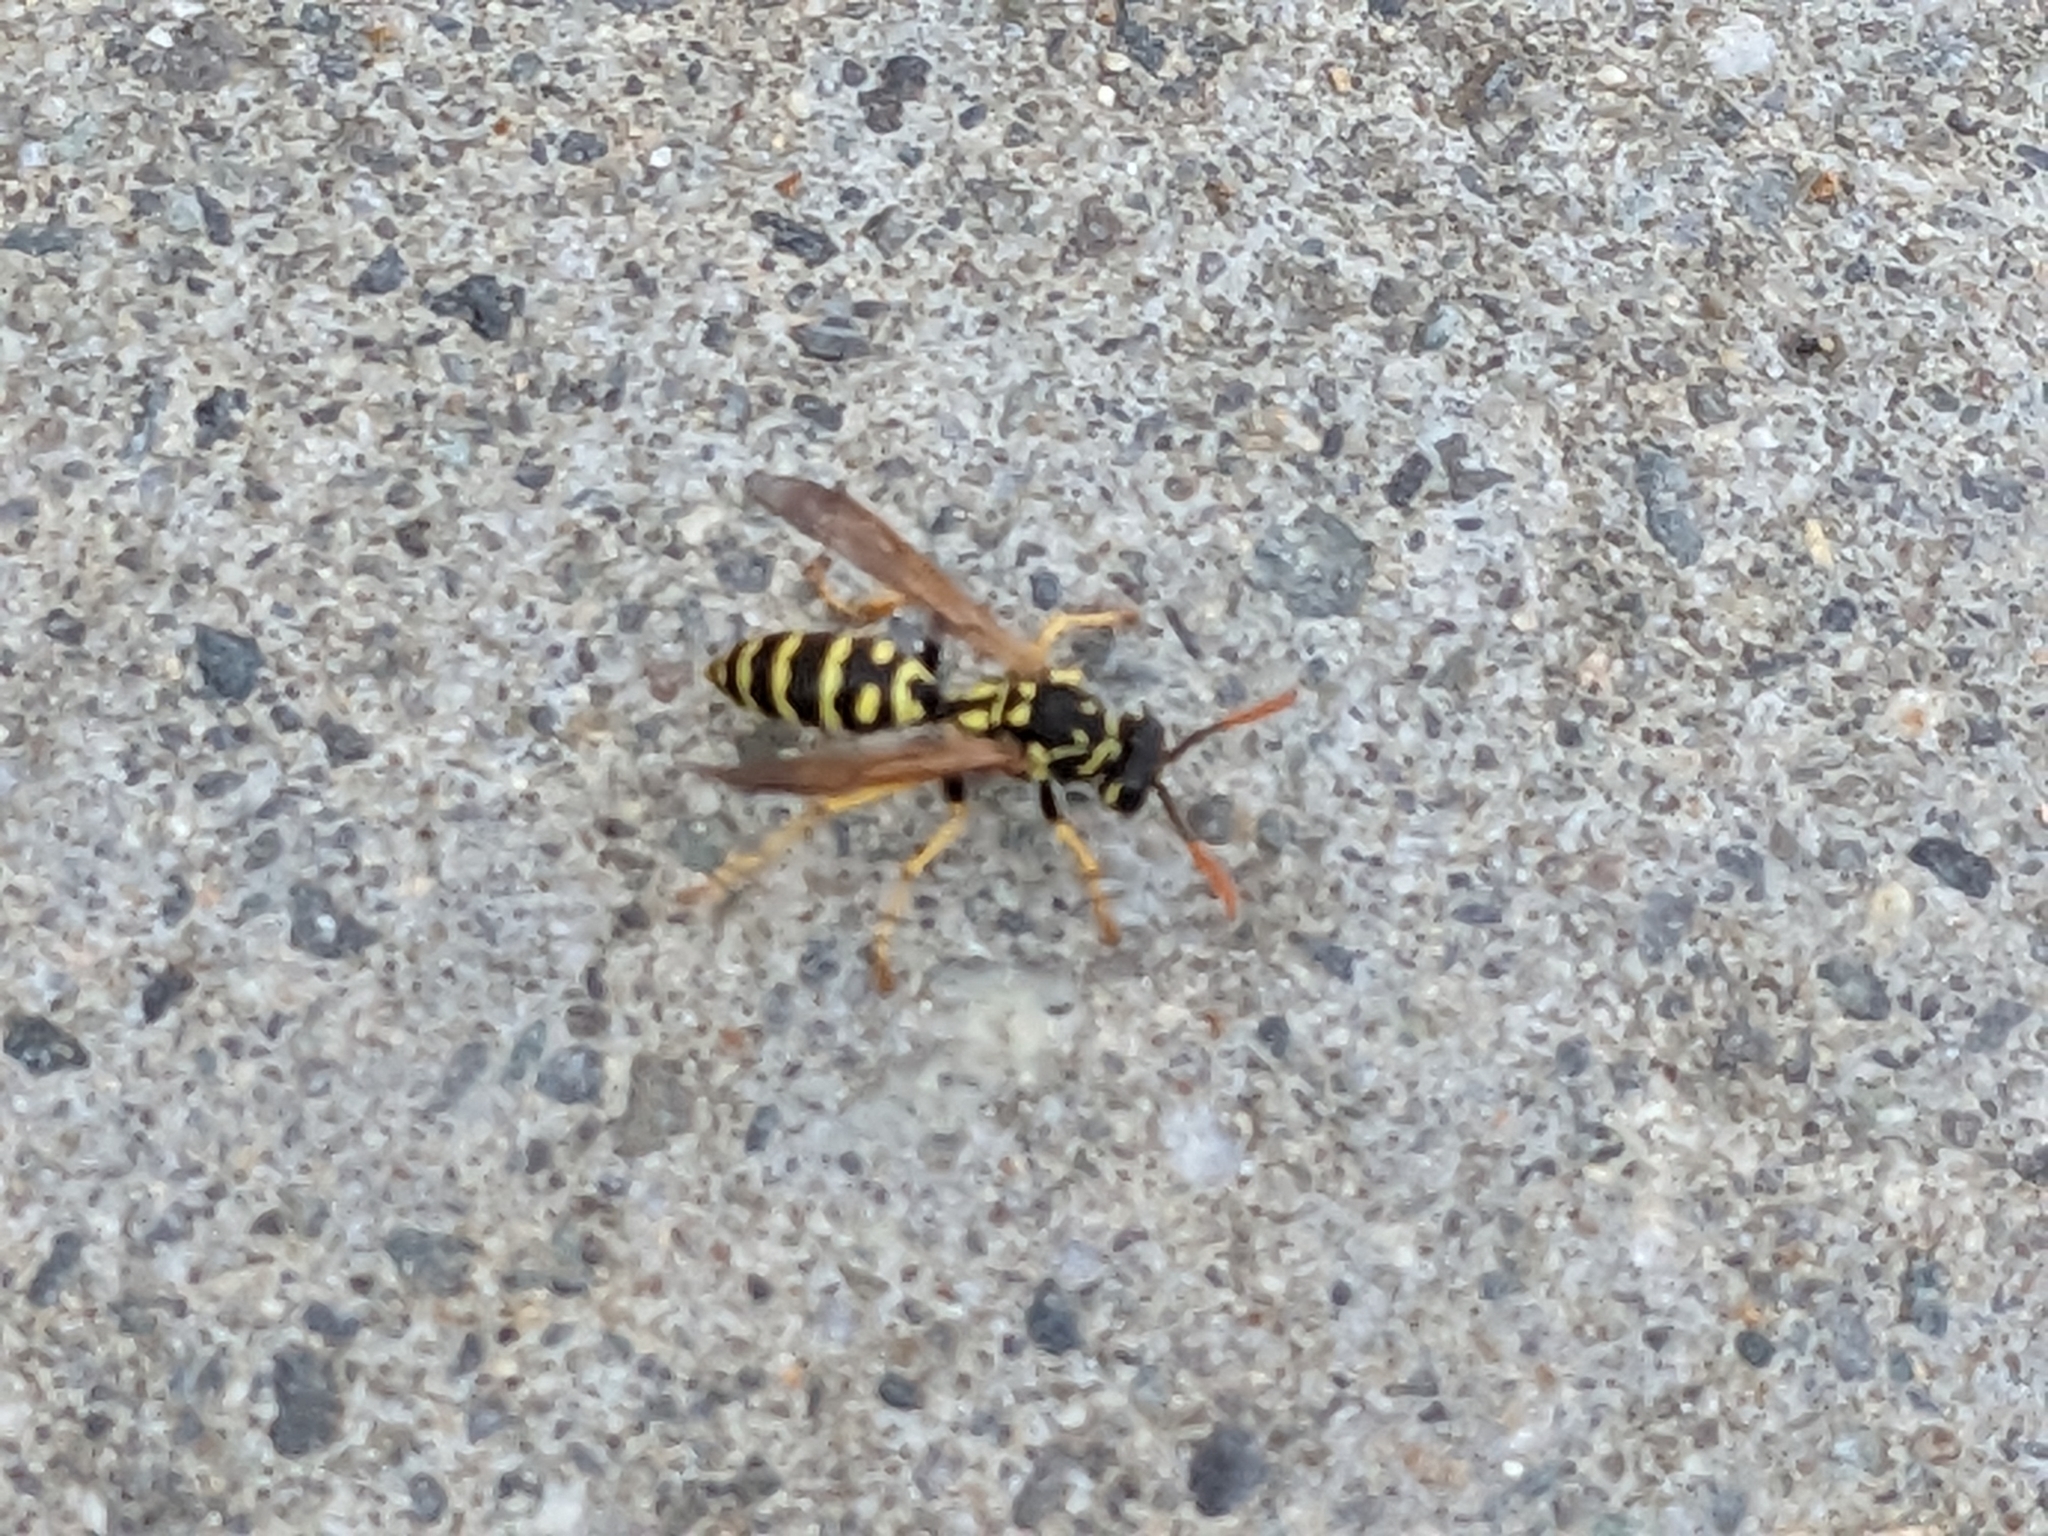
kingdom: Animalia
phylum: Arthropoda
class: Insecta
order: Hymenoptera
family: Eumenidae
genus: Polistes
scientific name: Polistes dominula
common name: Paper wasp
